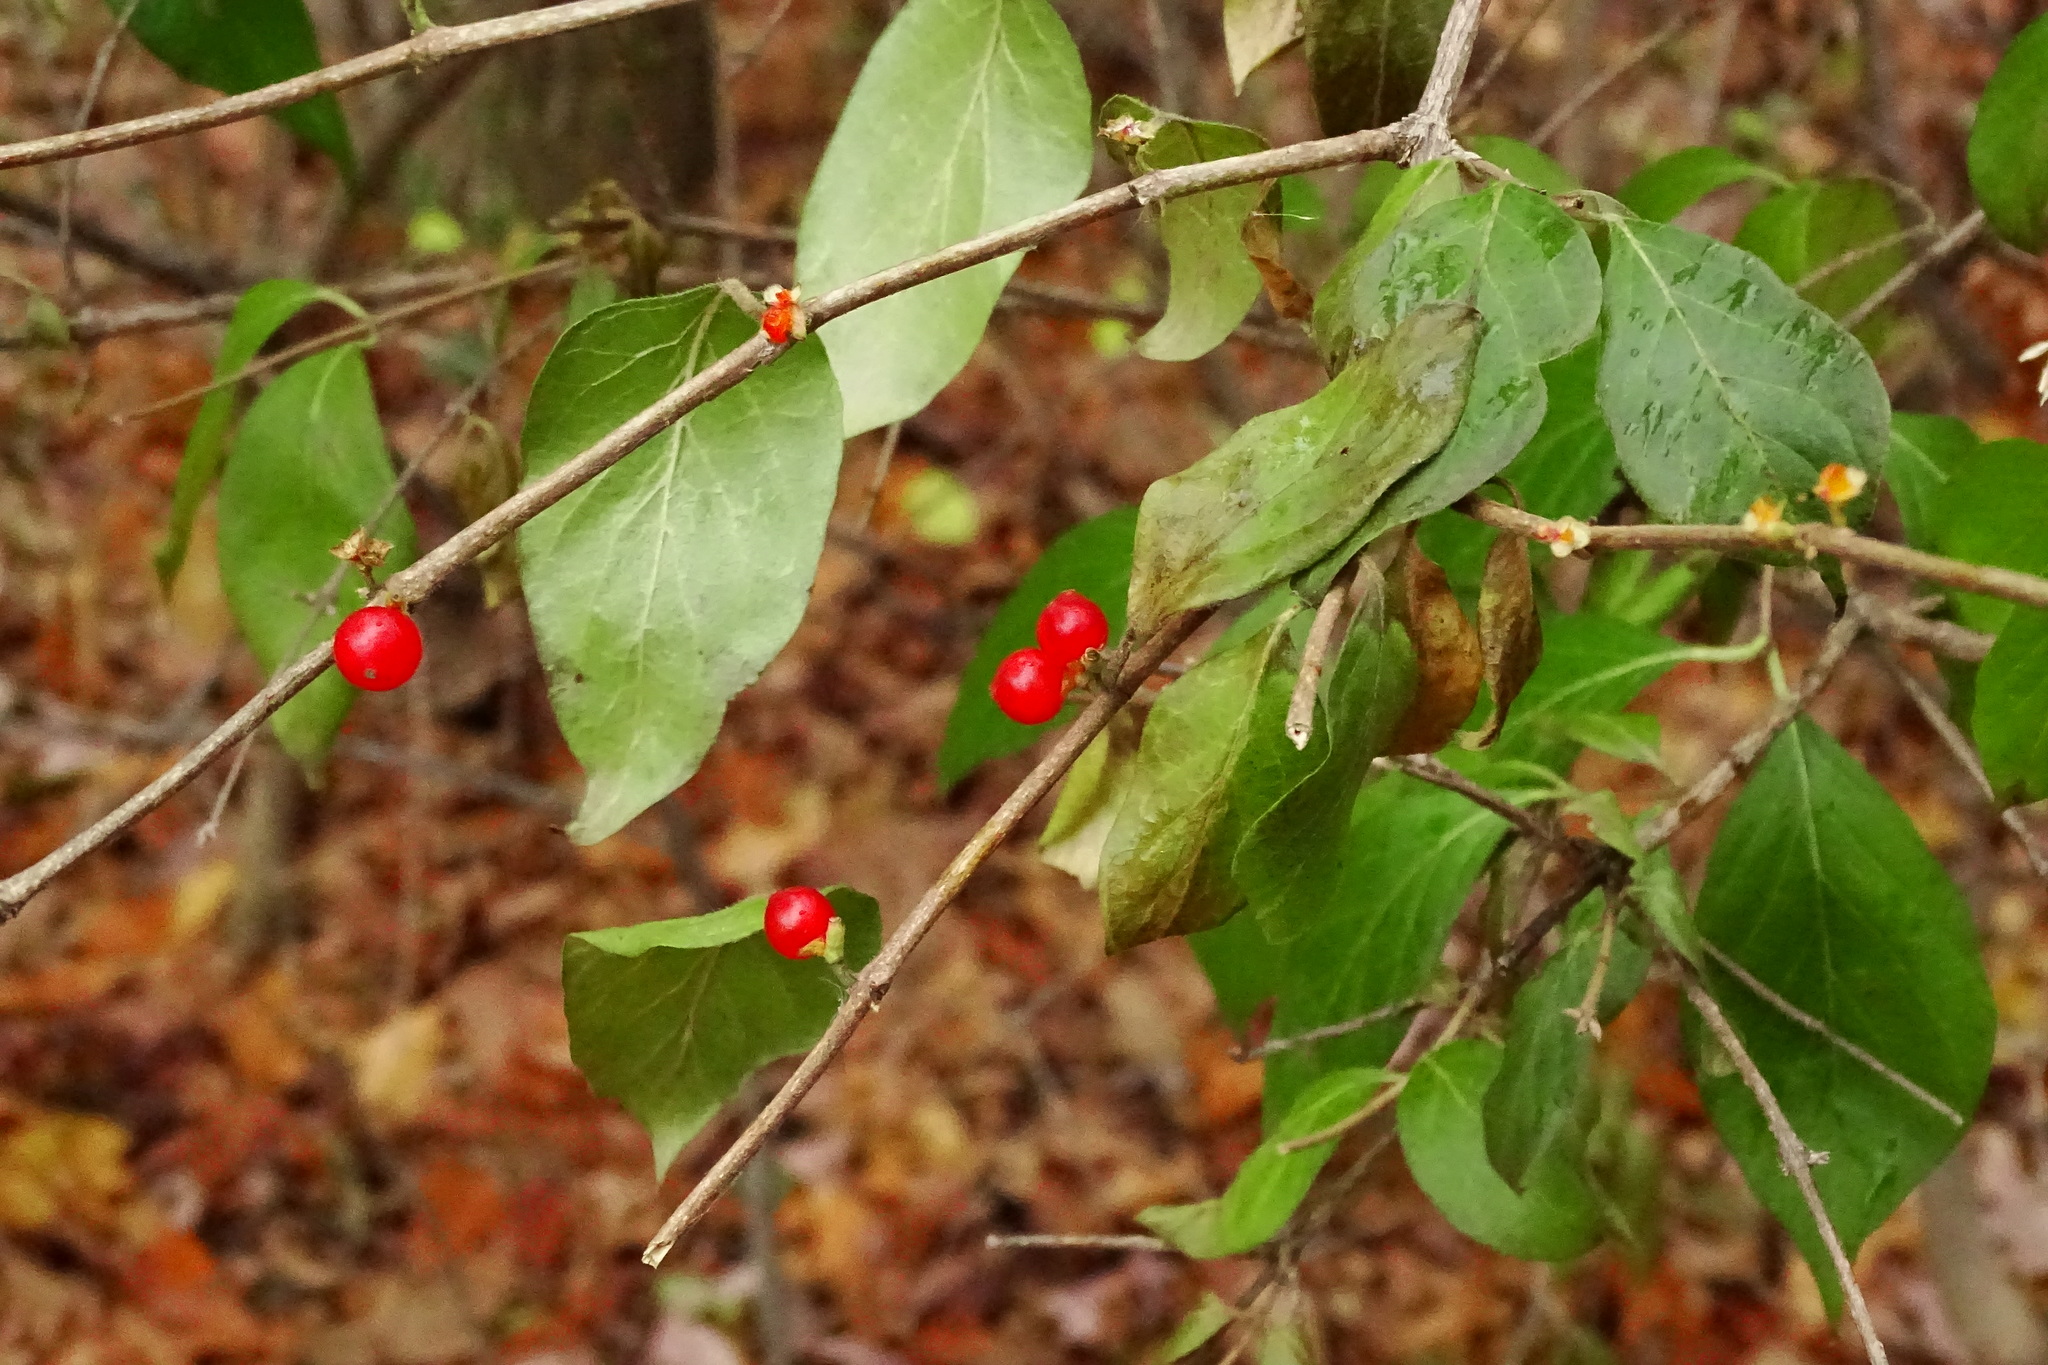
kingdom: Plantae
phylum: Tracheophyta
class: Magnoliopsida
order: Dipsacales
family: Caprifoliaceae
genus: Lonicera
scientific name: Lonicera maackii
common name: Amur honeysuckle
